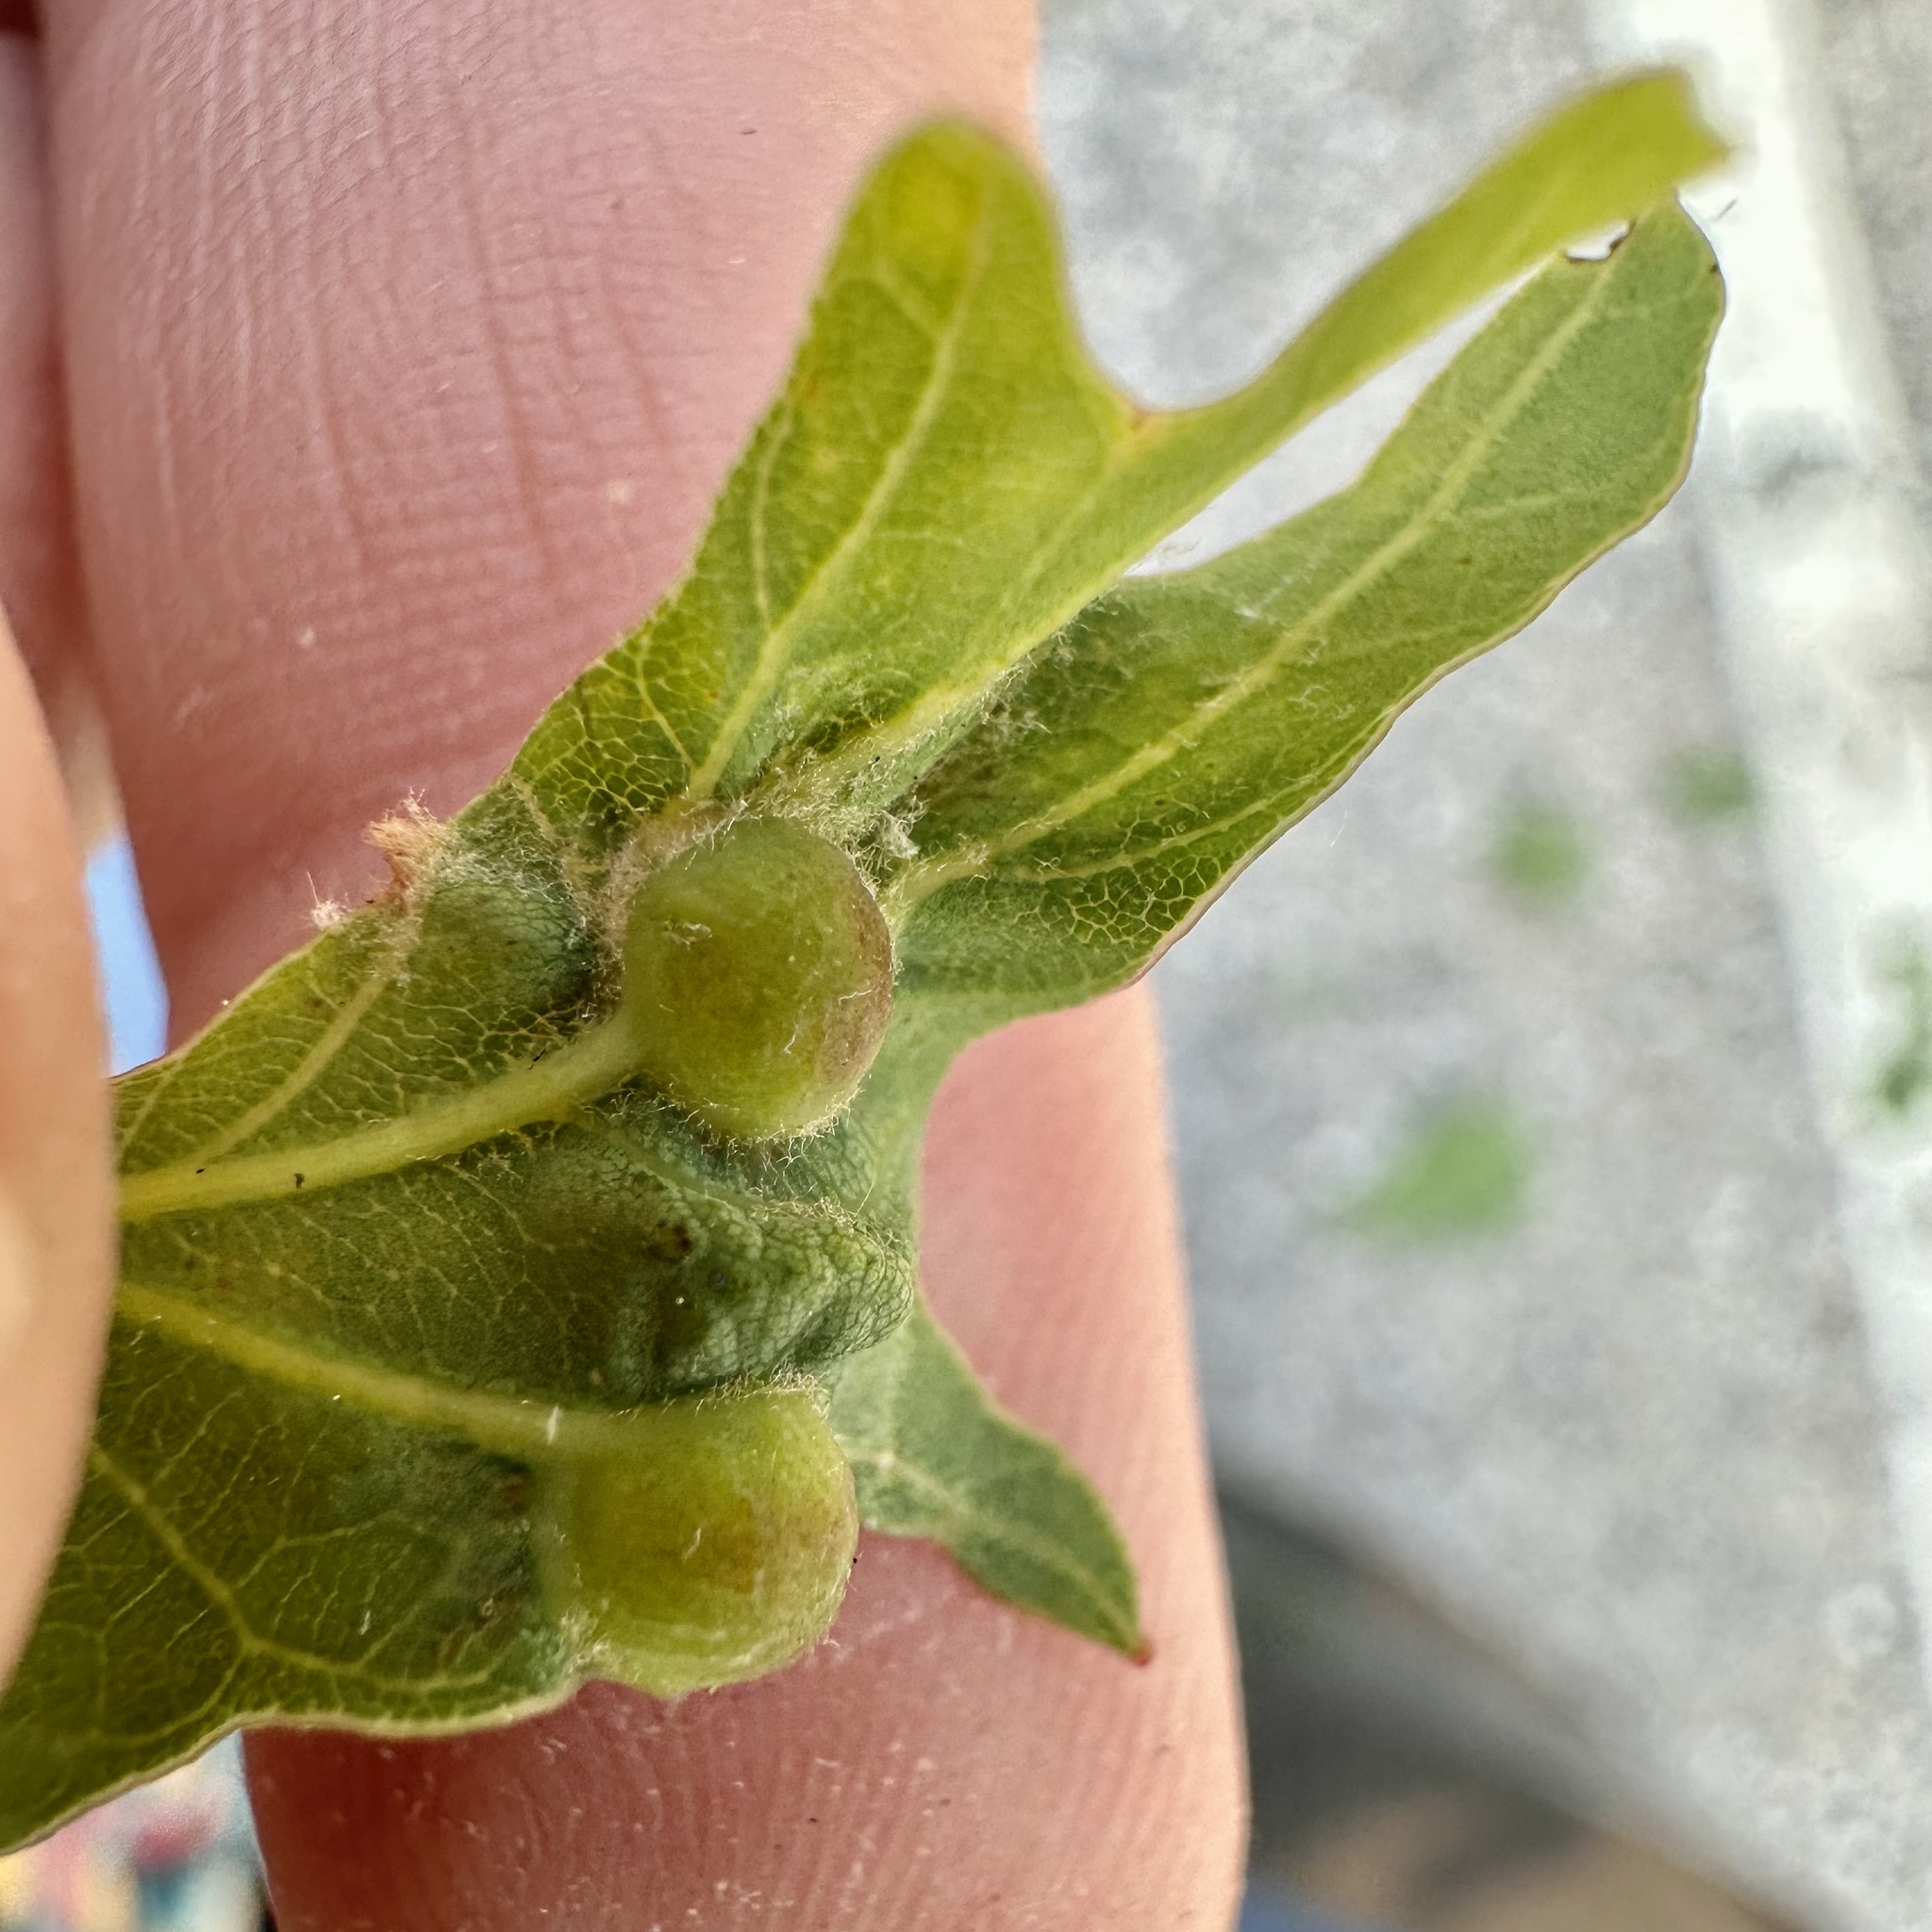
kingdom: Animalia
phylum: Arthropoda
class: Insecta
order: Hymenoptera
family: Cynipidae
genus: Andricus
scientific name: Andricus
